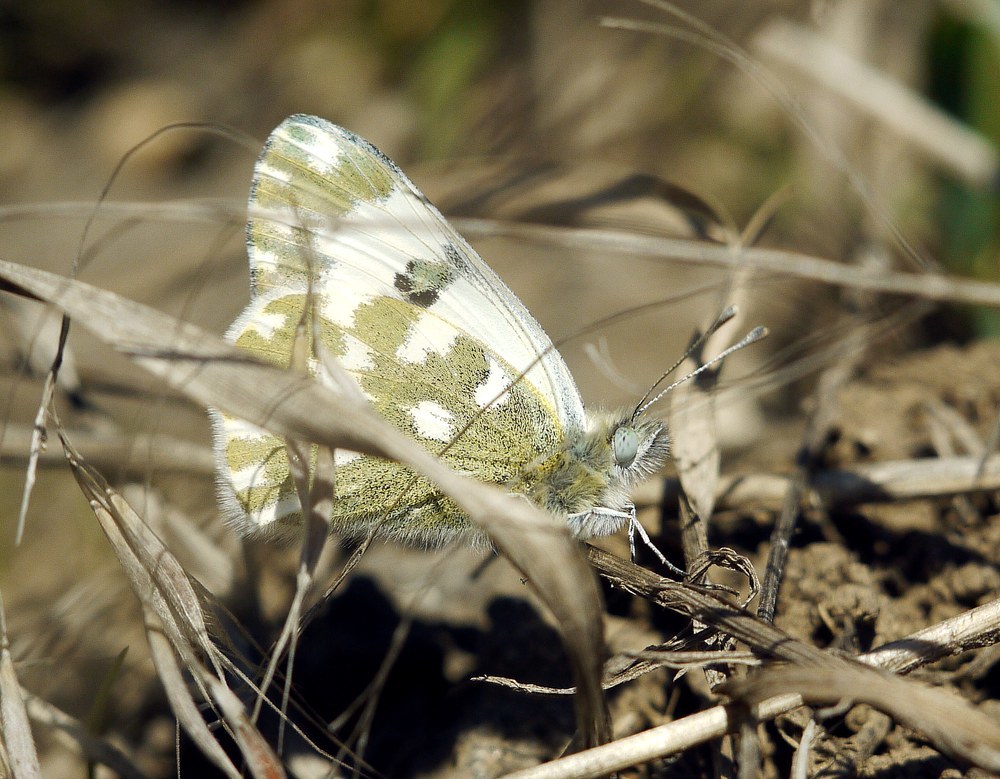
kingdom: Animalia
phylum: Arthropoda
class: Insecta
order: Lepidoptera
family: Pieridae
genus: Pontia
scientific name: Pontia edusa
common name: Eastern bath white
